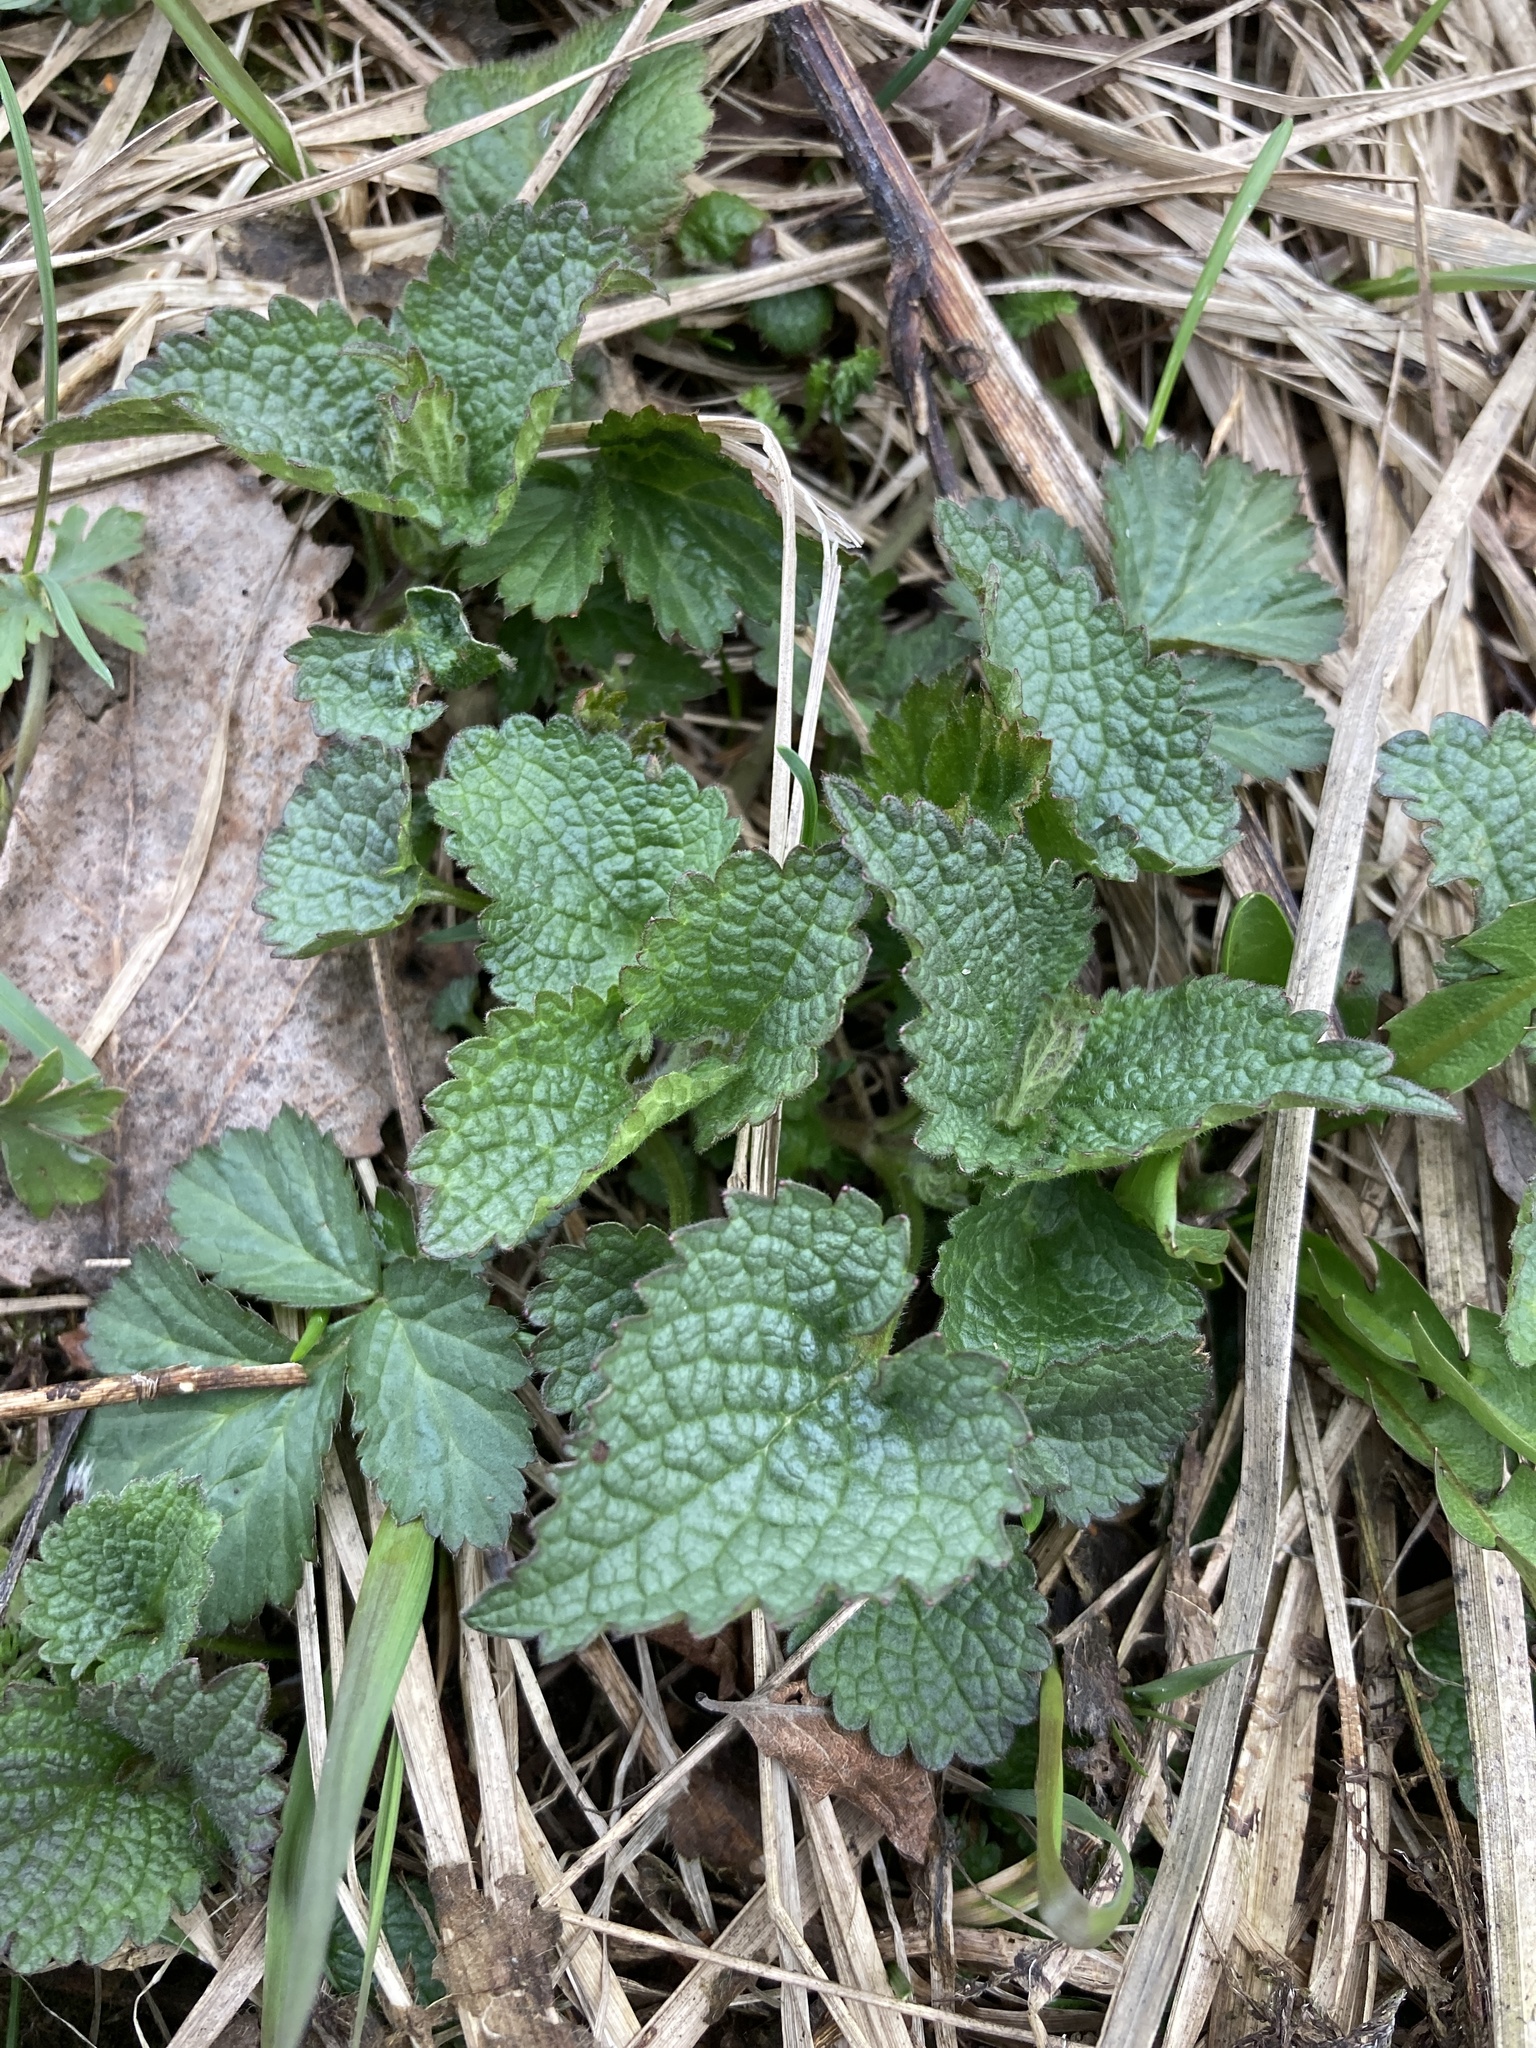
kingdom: Plantae
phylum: Tracheophyta
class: Magnoliopsida
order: Lamiales
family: Lamiaceae
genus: Lamium
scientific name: Lamium album
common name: White dead-nettle
